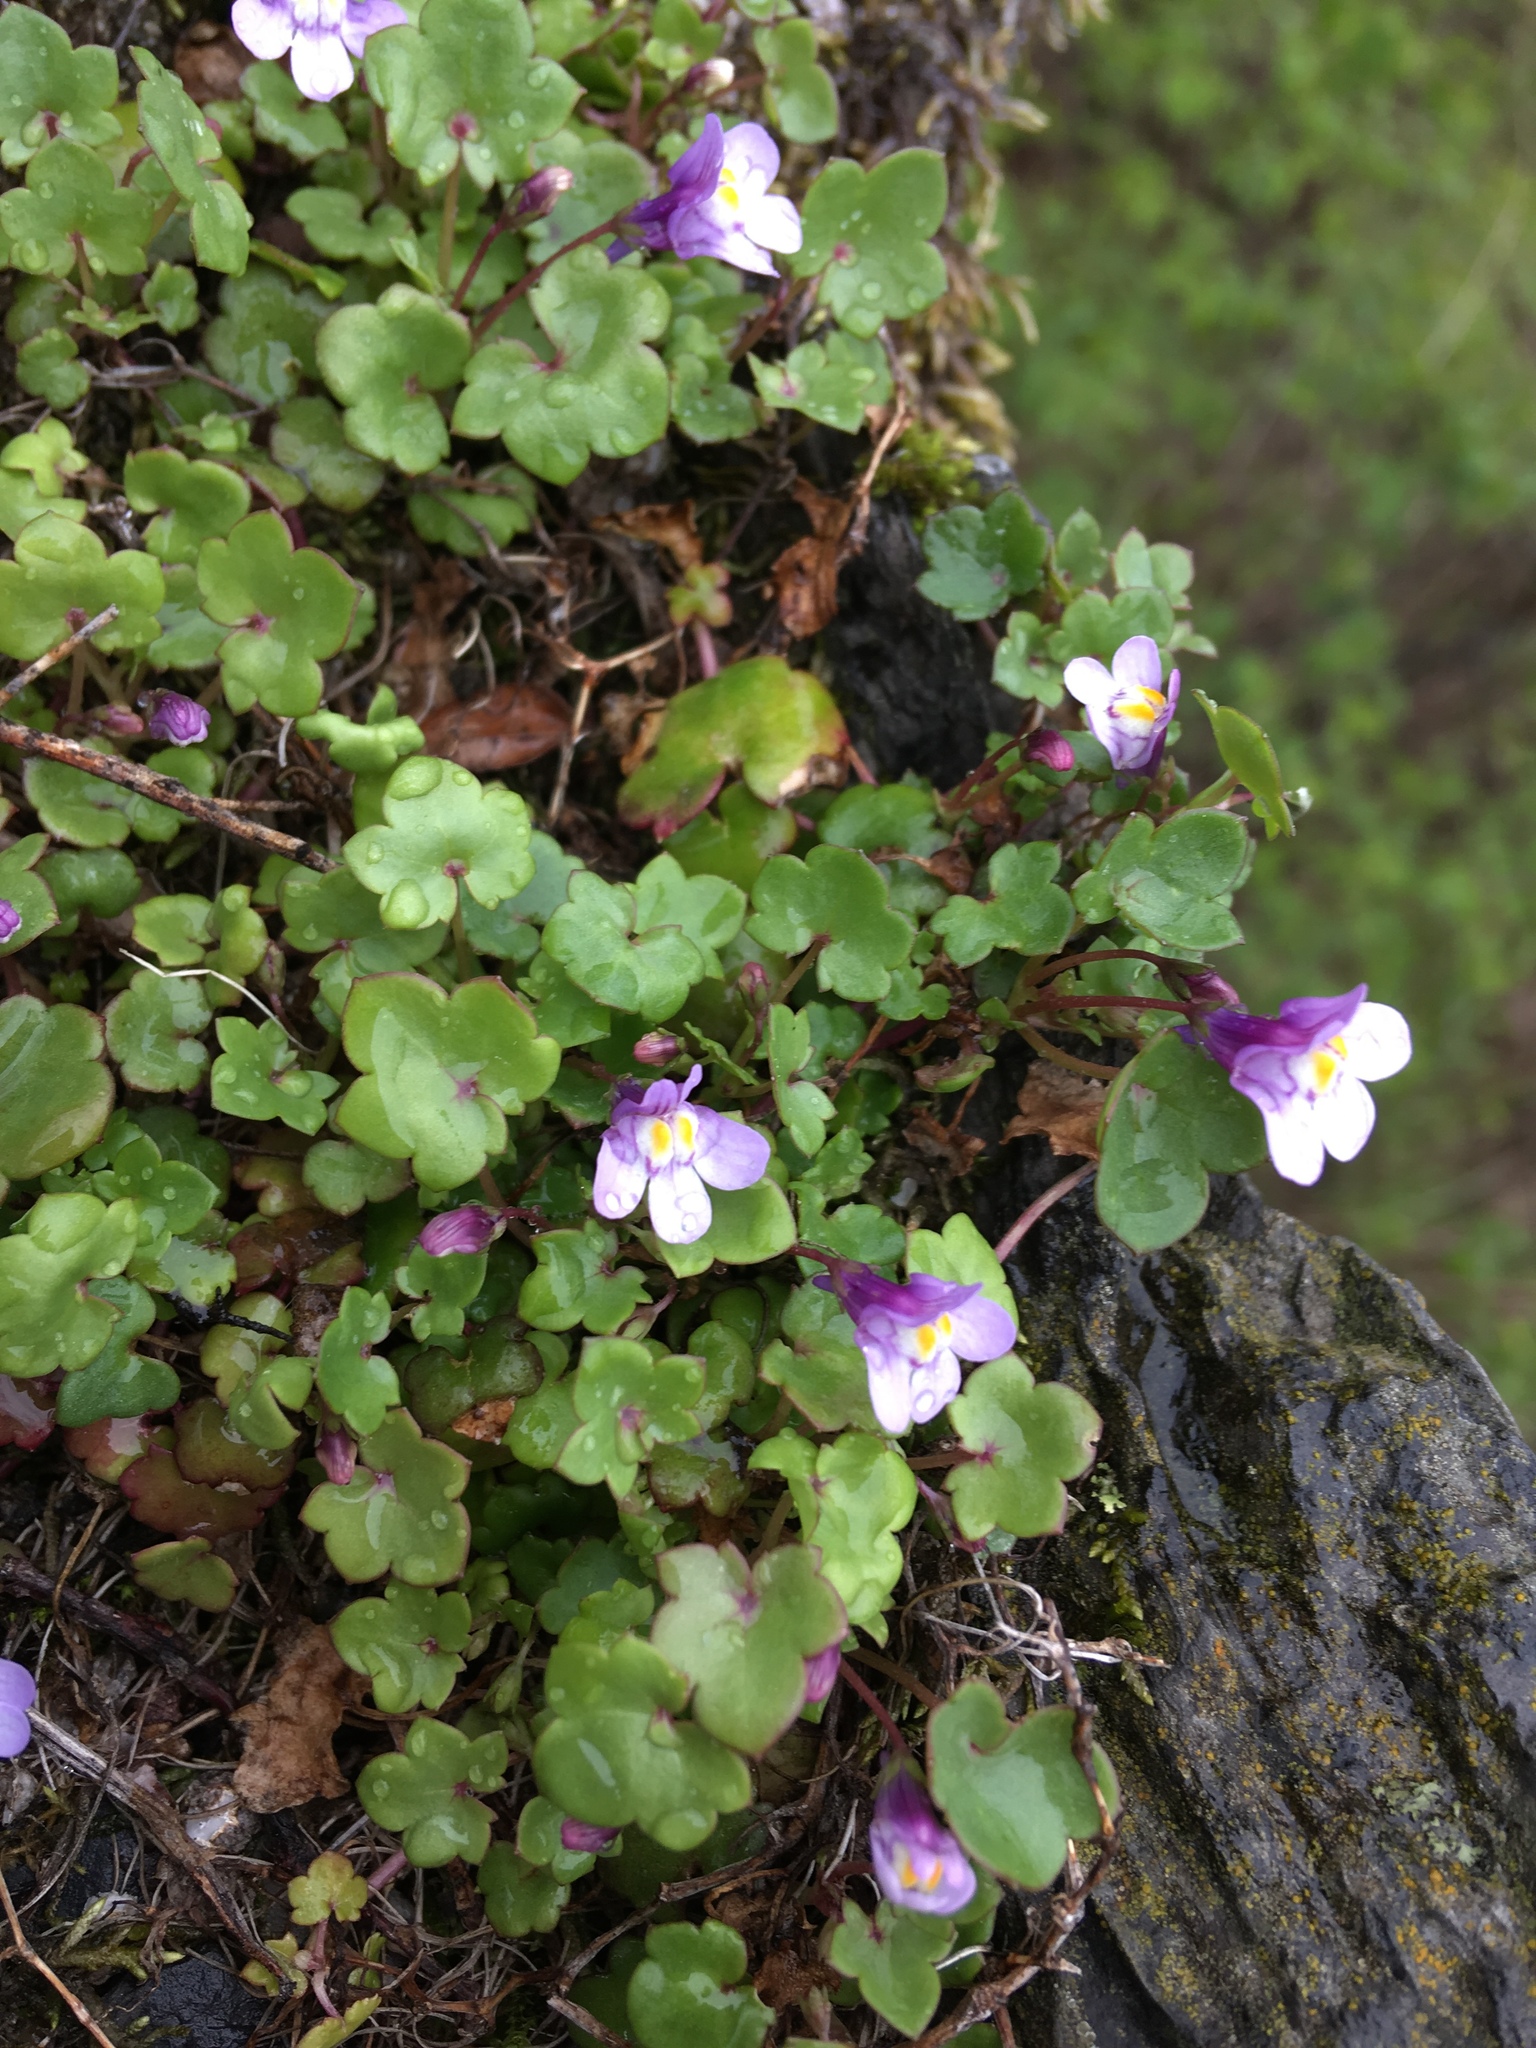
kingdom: Plantae
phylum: Tracheophyta
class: Magnoliopsida
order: Lamiales
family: Plantaginaceae
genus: Cymbalaria
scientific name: Cymbalaria muralis
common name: Ivy-leaved toadflax
